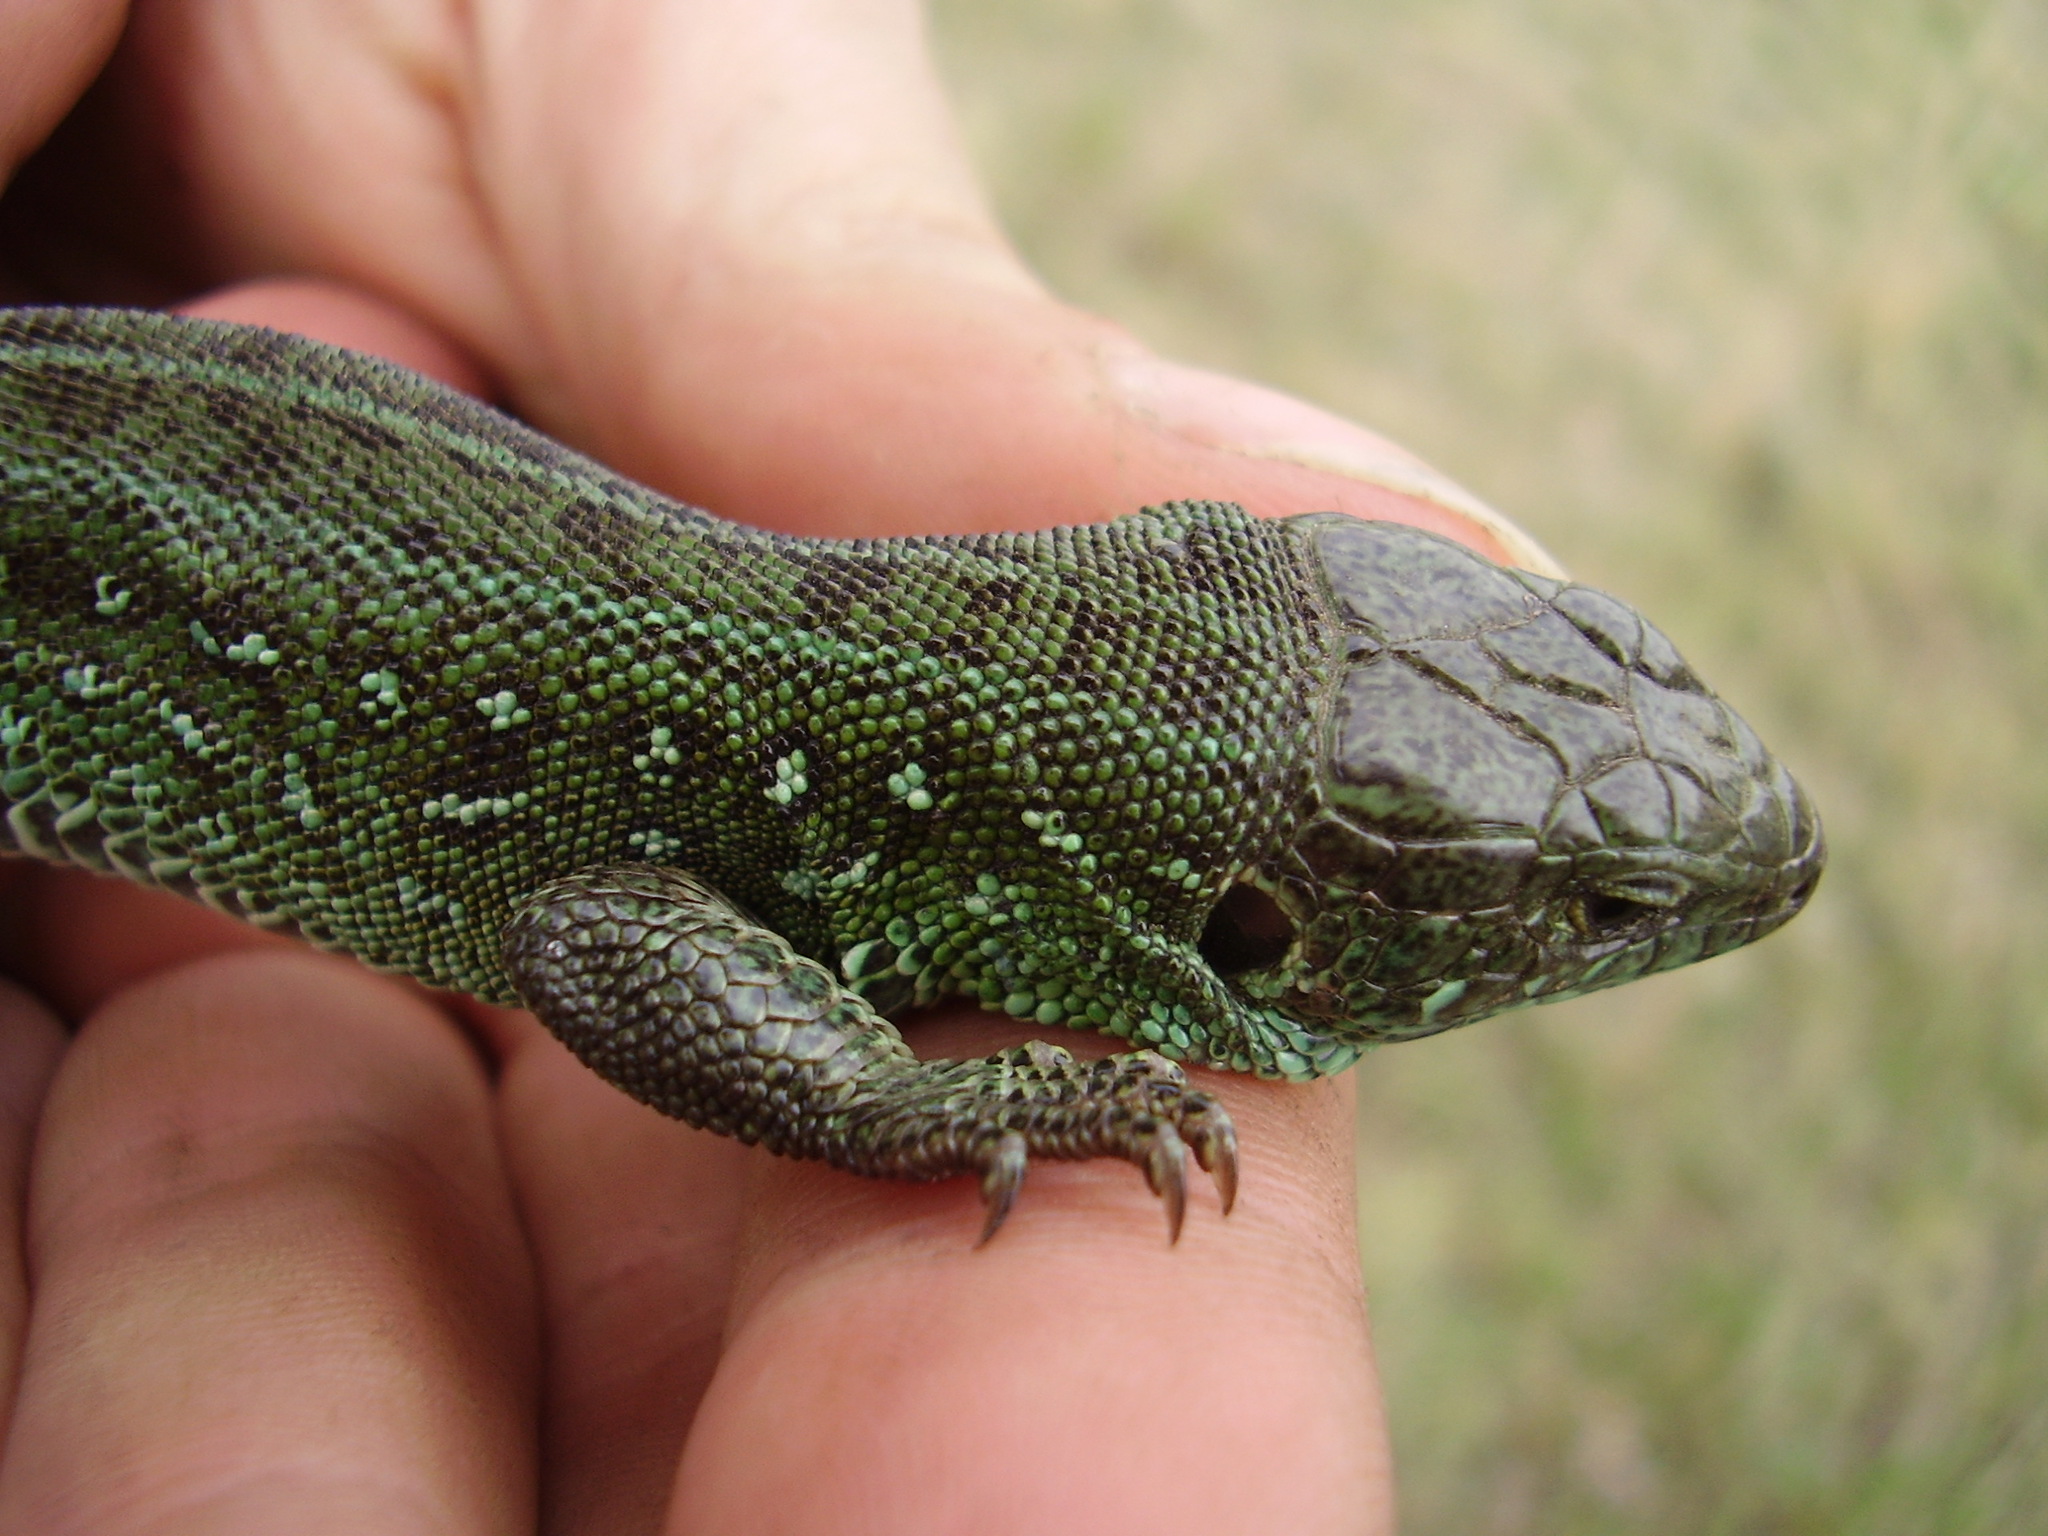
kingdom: Animalia
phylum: Chordata
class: Squamata
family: Lacertidae
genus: Lacerta
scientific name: Lacerta agilis
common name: Sand lizard
